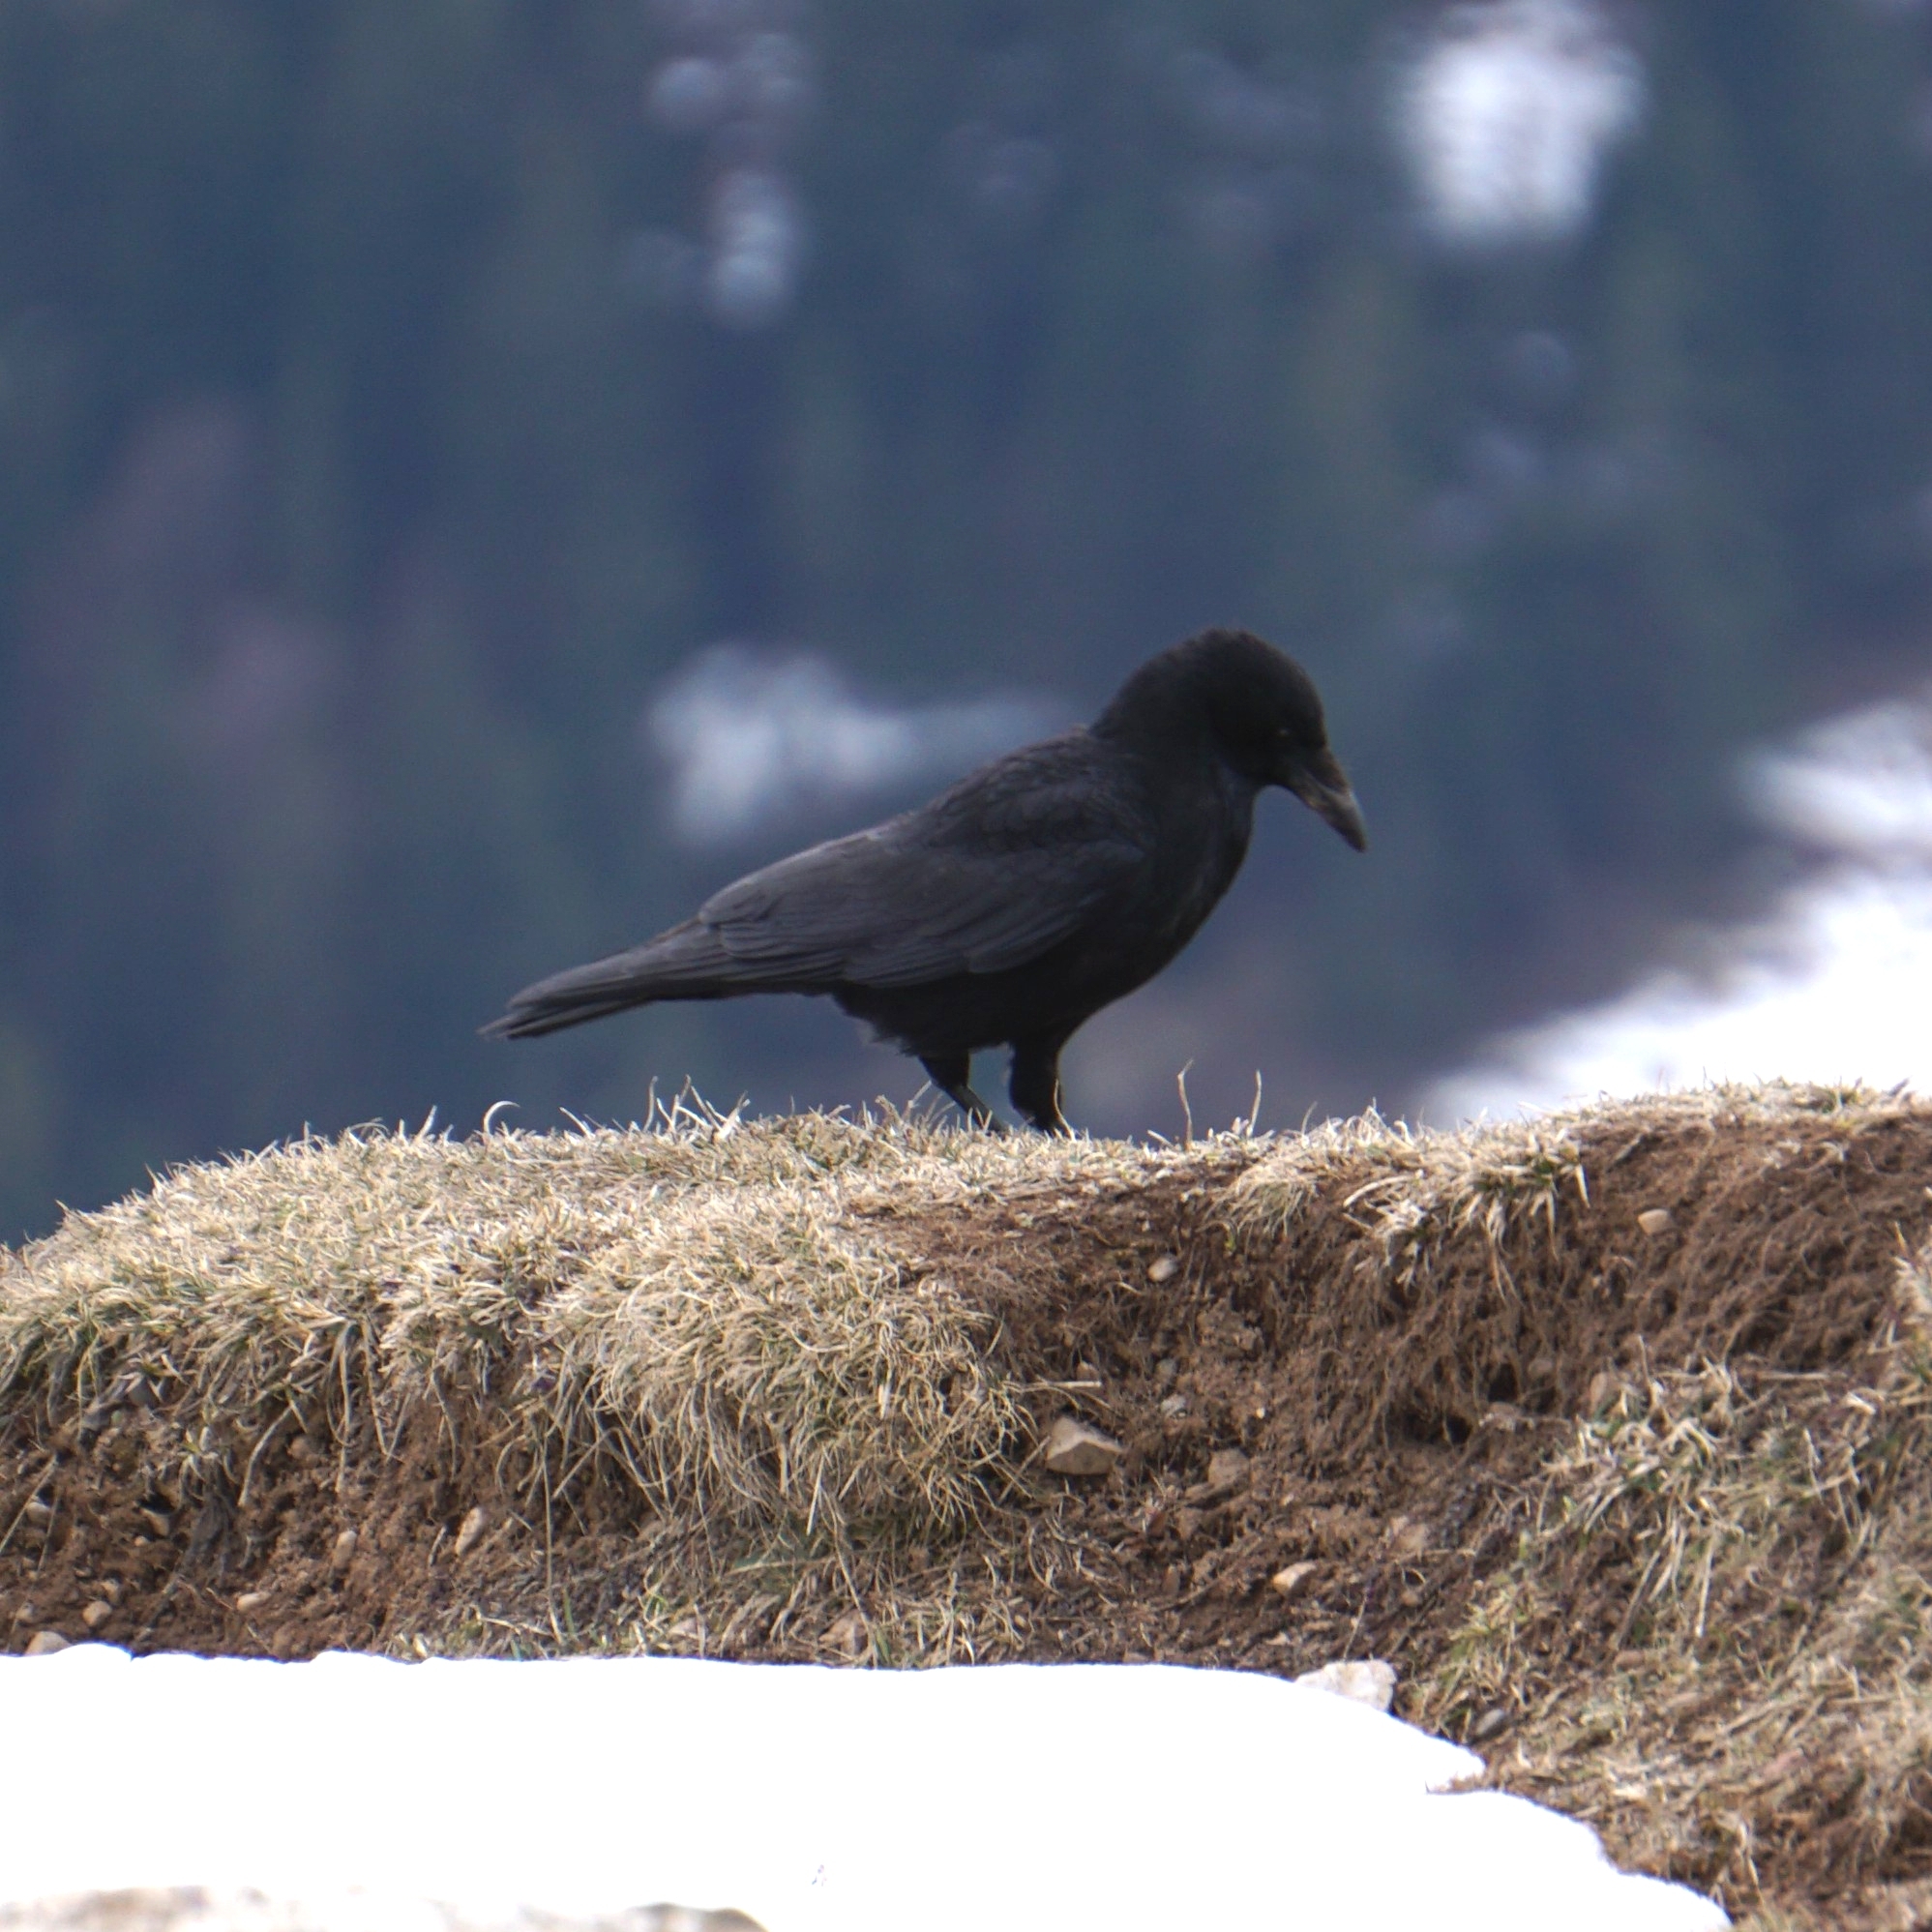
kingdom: Animalia
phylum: Chordata
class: Aves
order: Passeriformes
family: Corvidae
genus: Corvus
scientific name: Corvus corone
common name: Carrion crow
